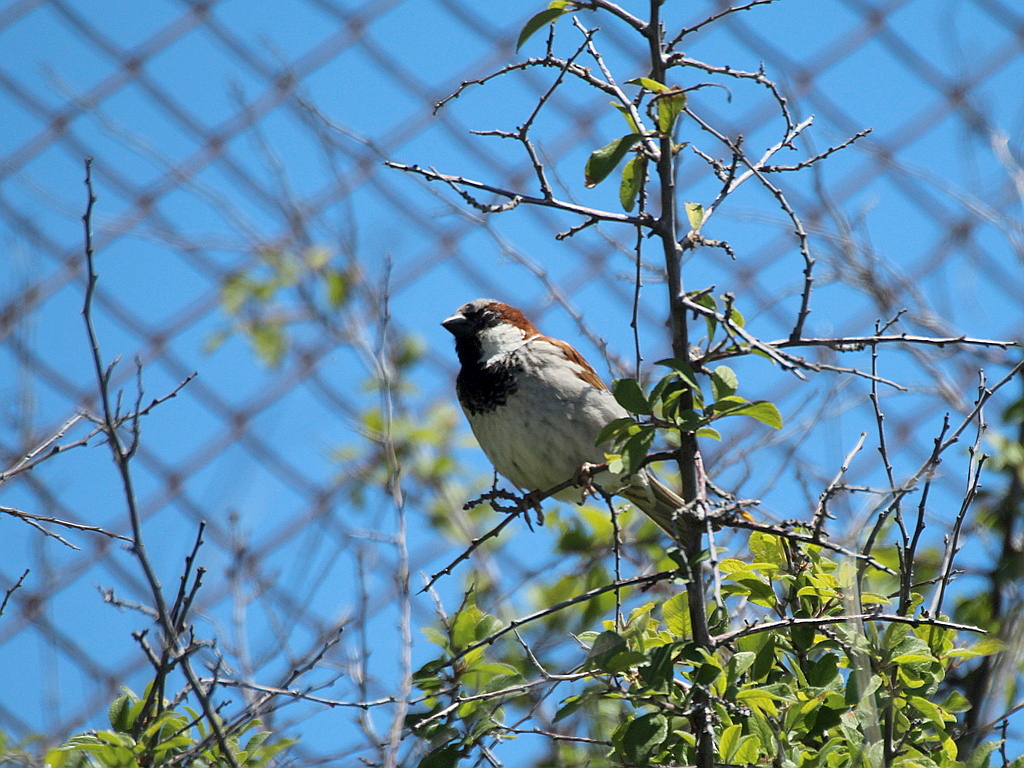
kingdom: Animalia
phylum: Chordata
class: Aves
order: Passeriformes
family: Passeridae
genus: Passer
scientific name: Passer domesticus
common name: House sparrow
